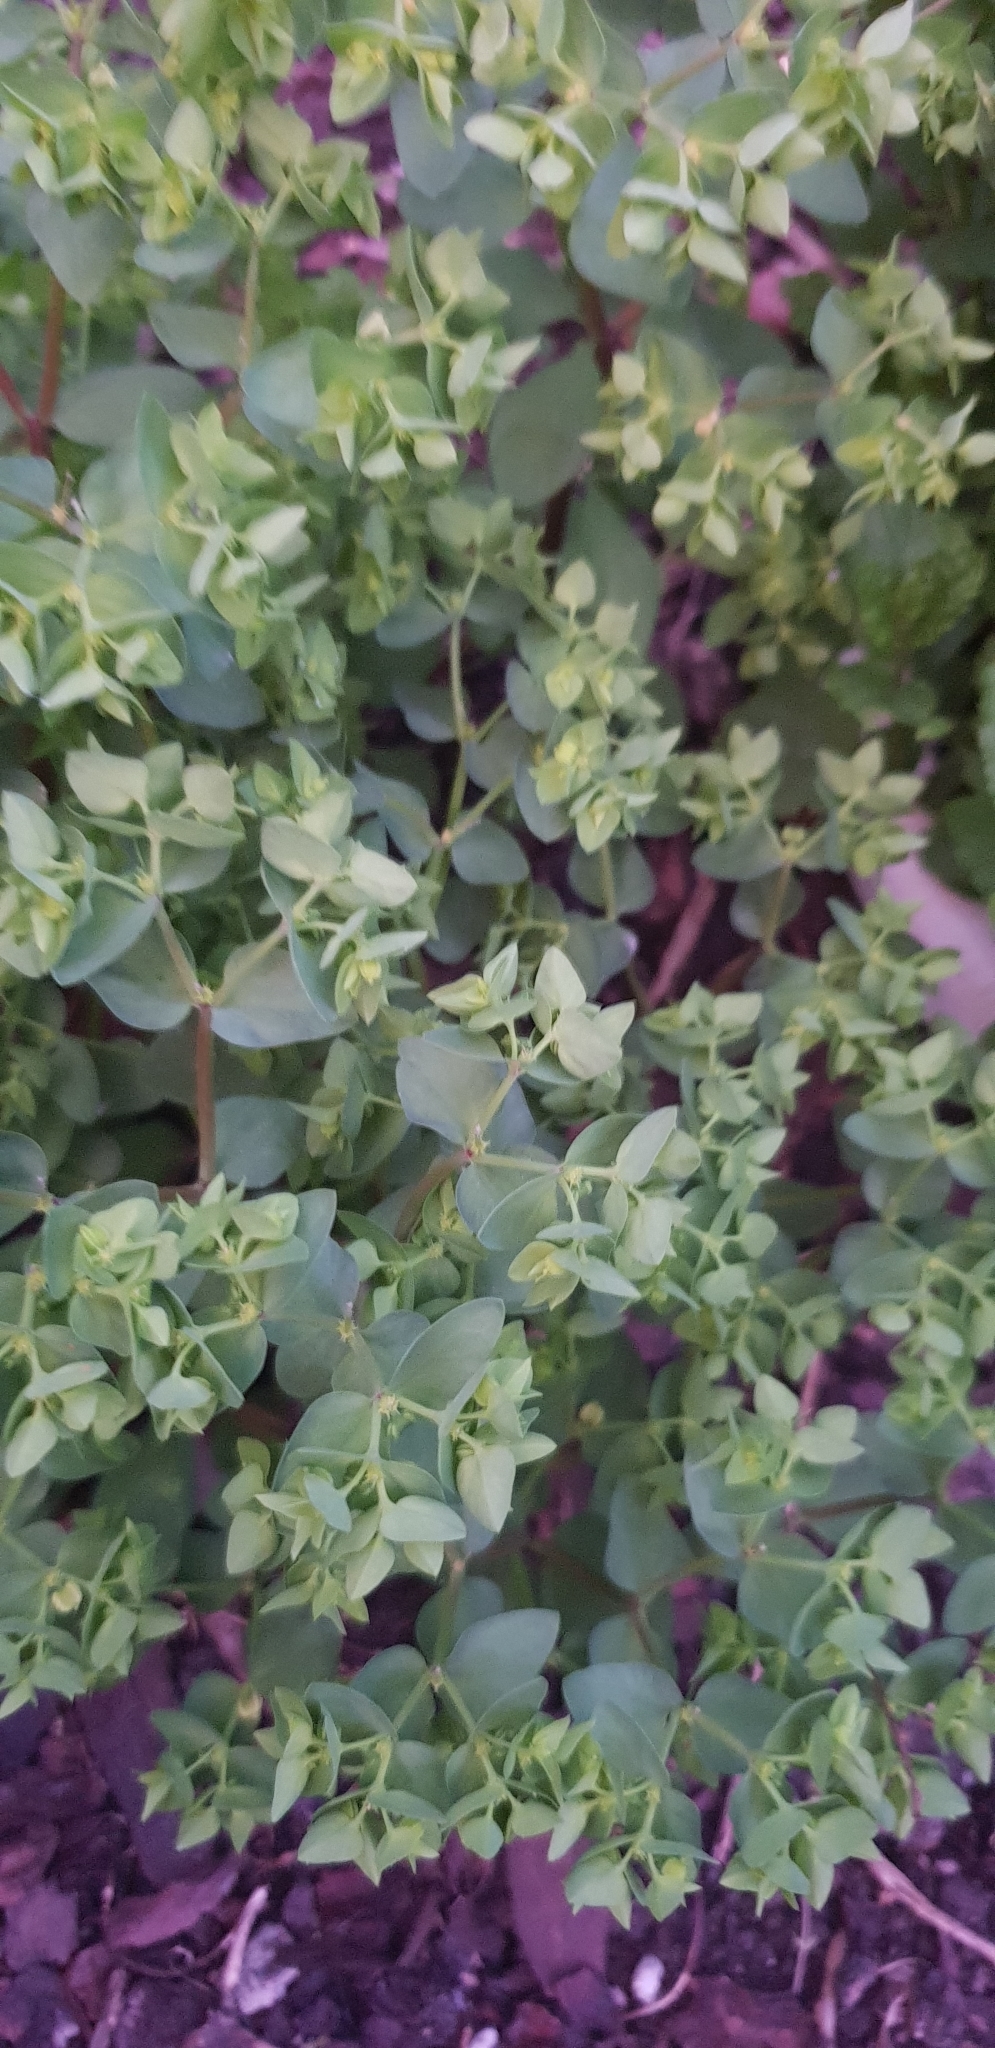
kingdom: Plantae
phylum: Tracheophyta
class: Magnoliopsida
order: Malpighiales
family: Euphorbiaceae
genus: Euphorbia
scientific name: Euphorbia peplus
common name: Petty spurge
